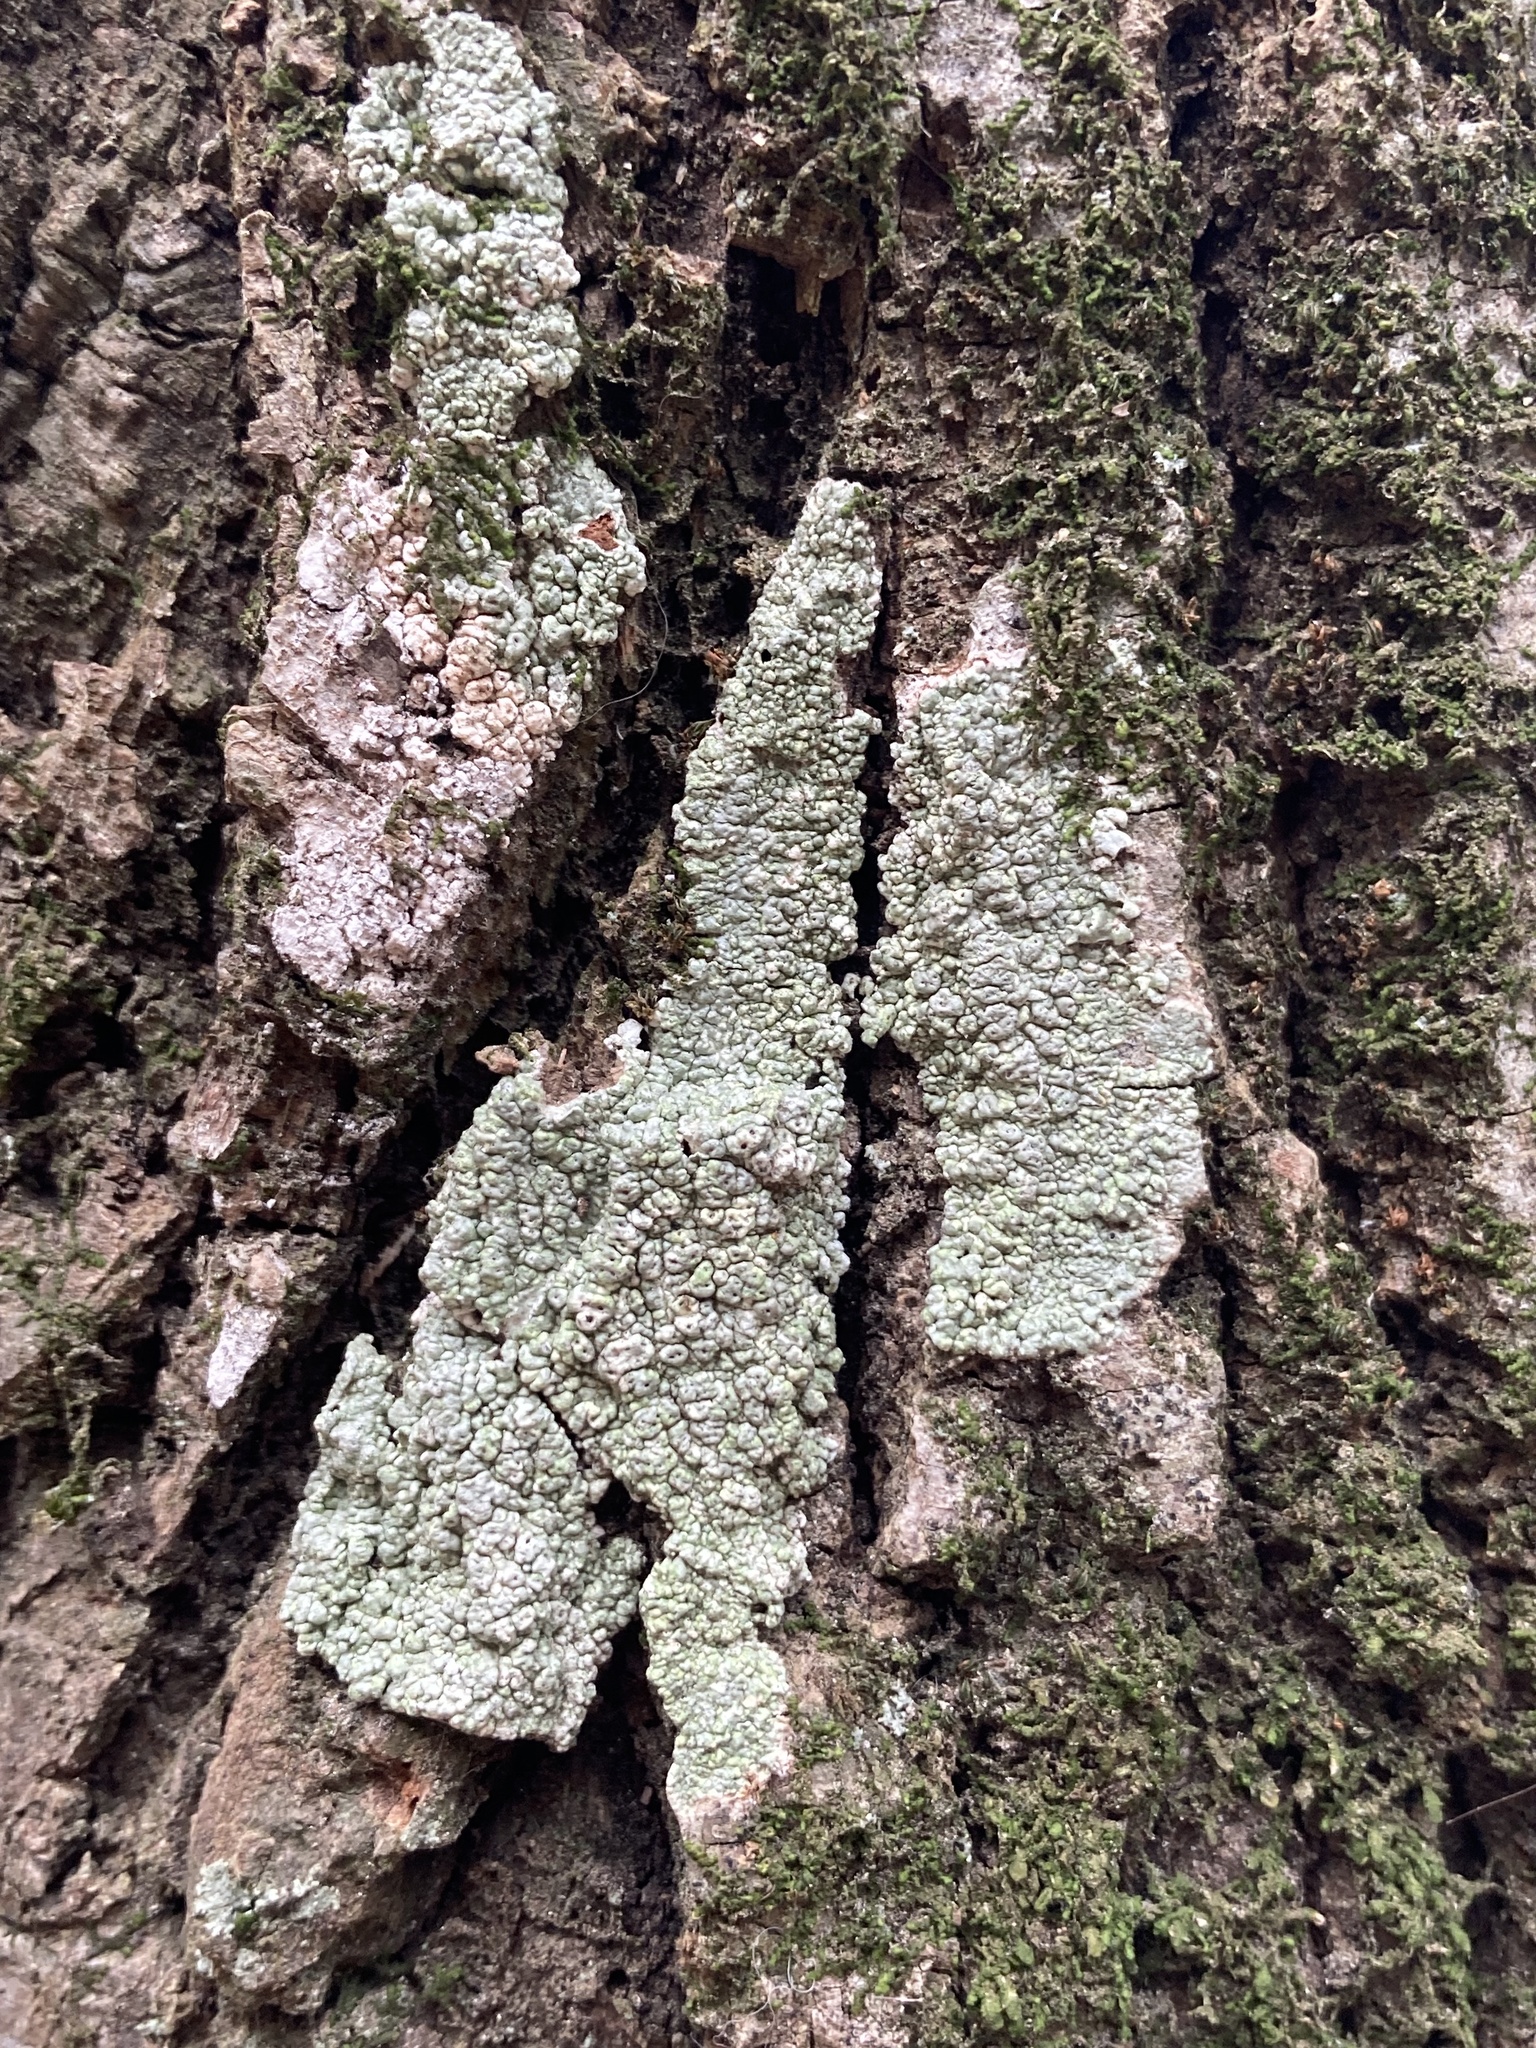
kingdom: Fungi
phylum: Ascomycota
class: Lecanoromycetes
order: Pertusariales
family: Pertusariaceae
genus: Pertusaria
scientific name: Pertusaria pertusa
